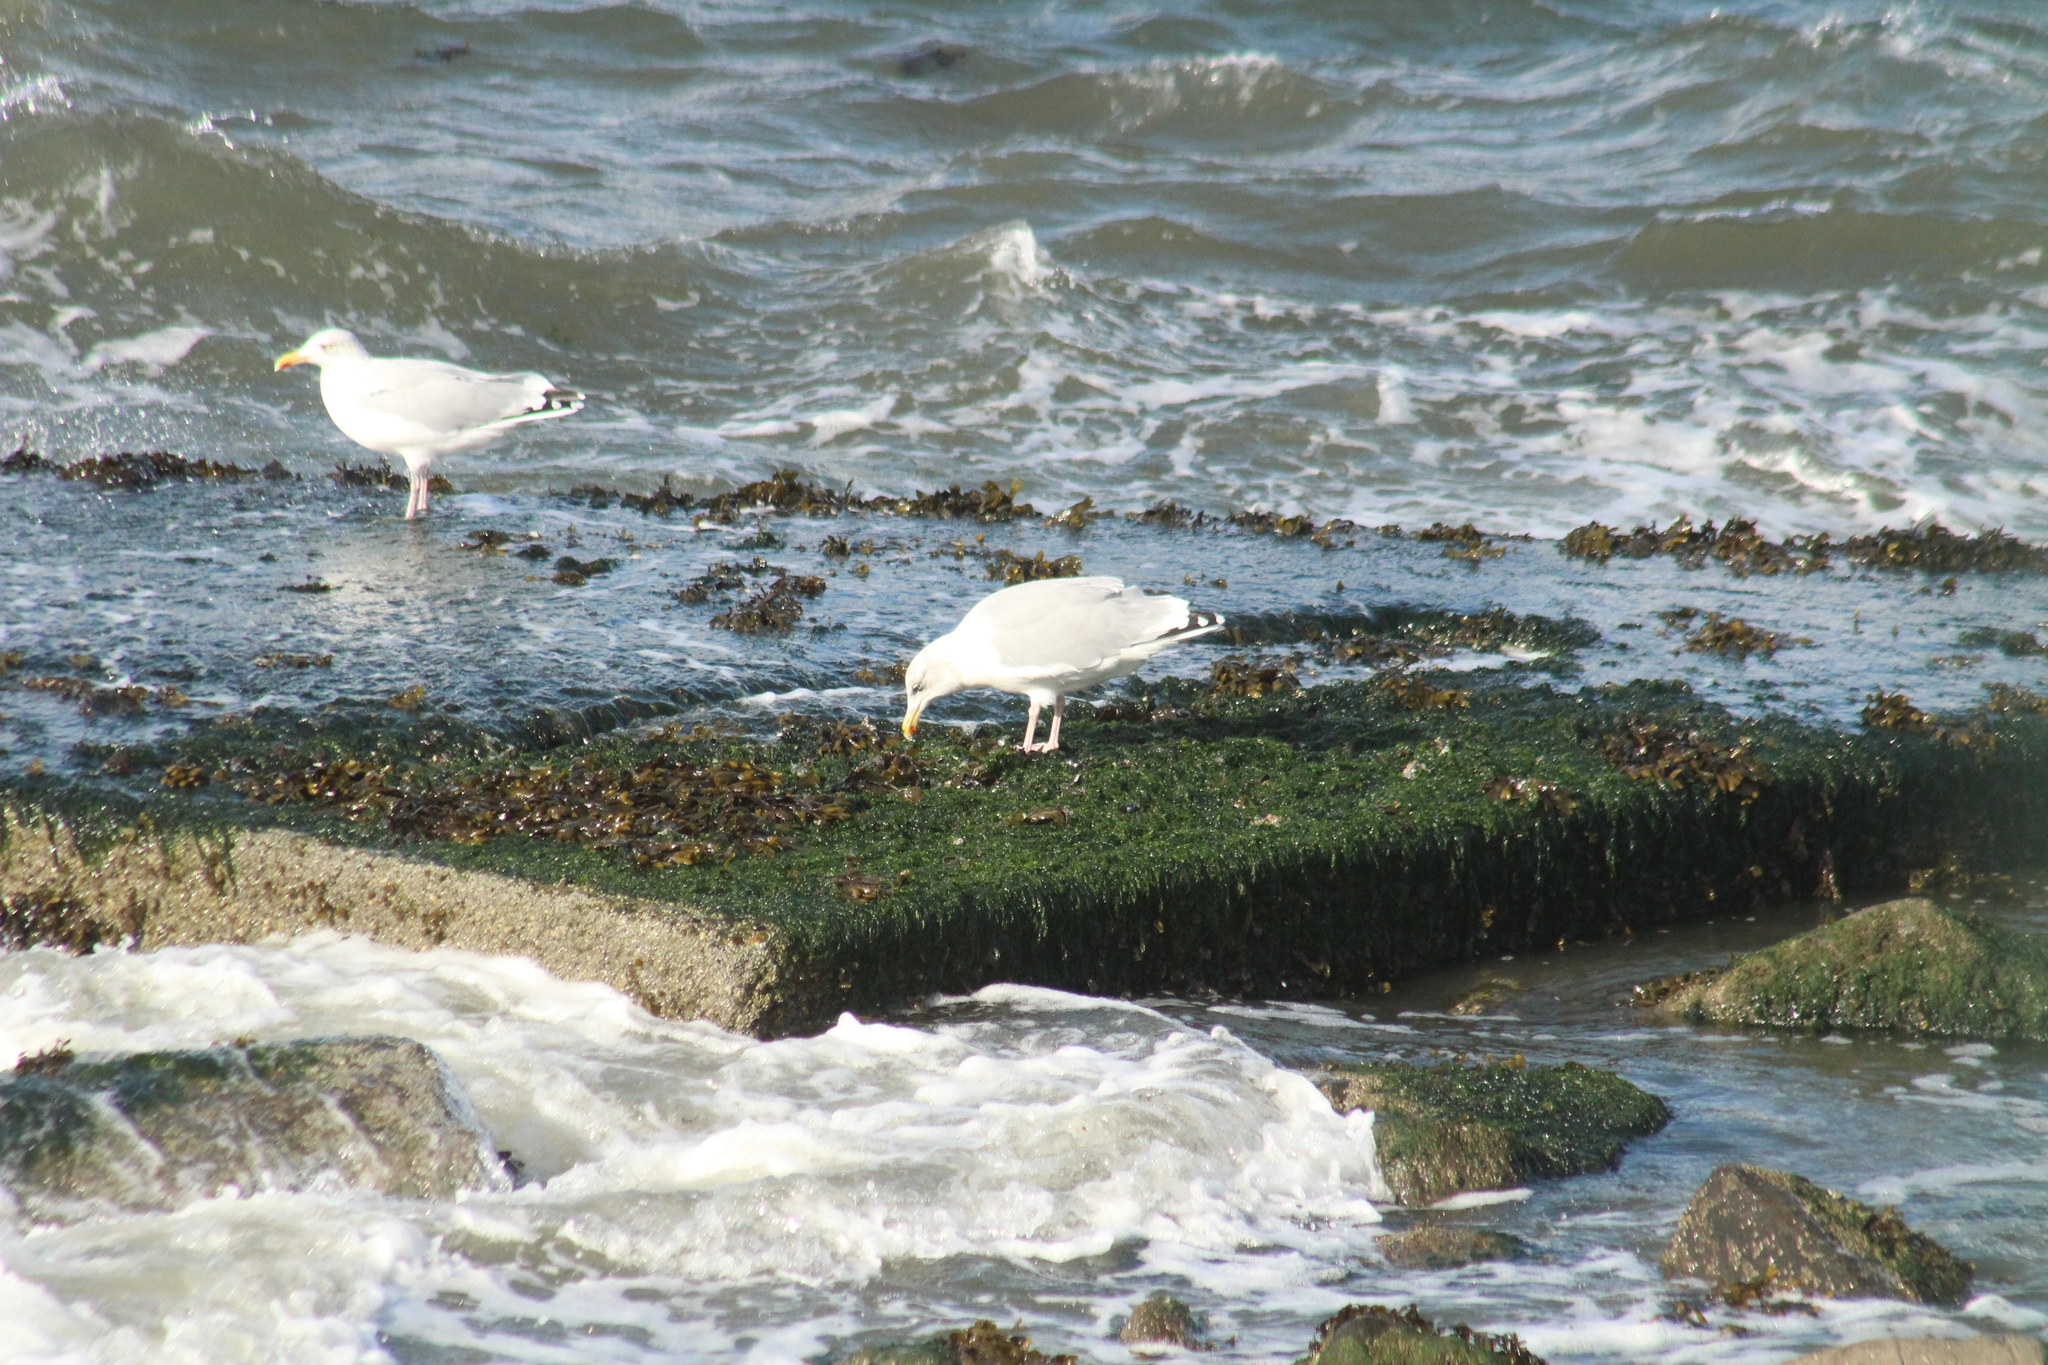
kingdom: Animalia
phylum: Chordata
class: Aves
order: Charadriiformes
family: Laridae
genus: Larus
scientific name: Larus argentatus
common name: Herring gull
